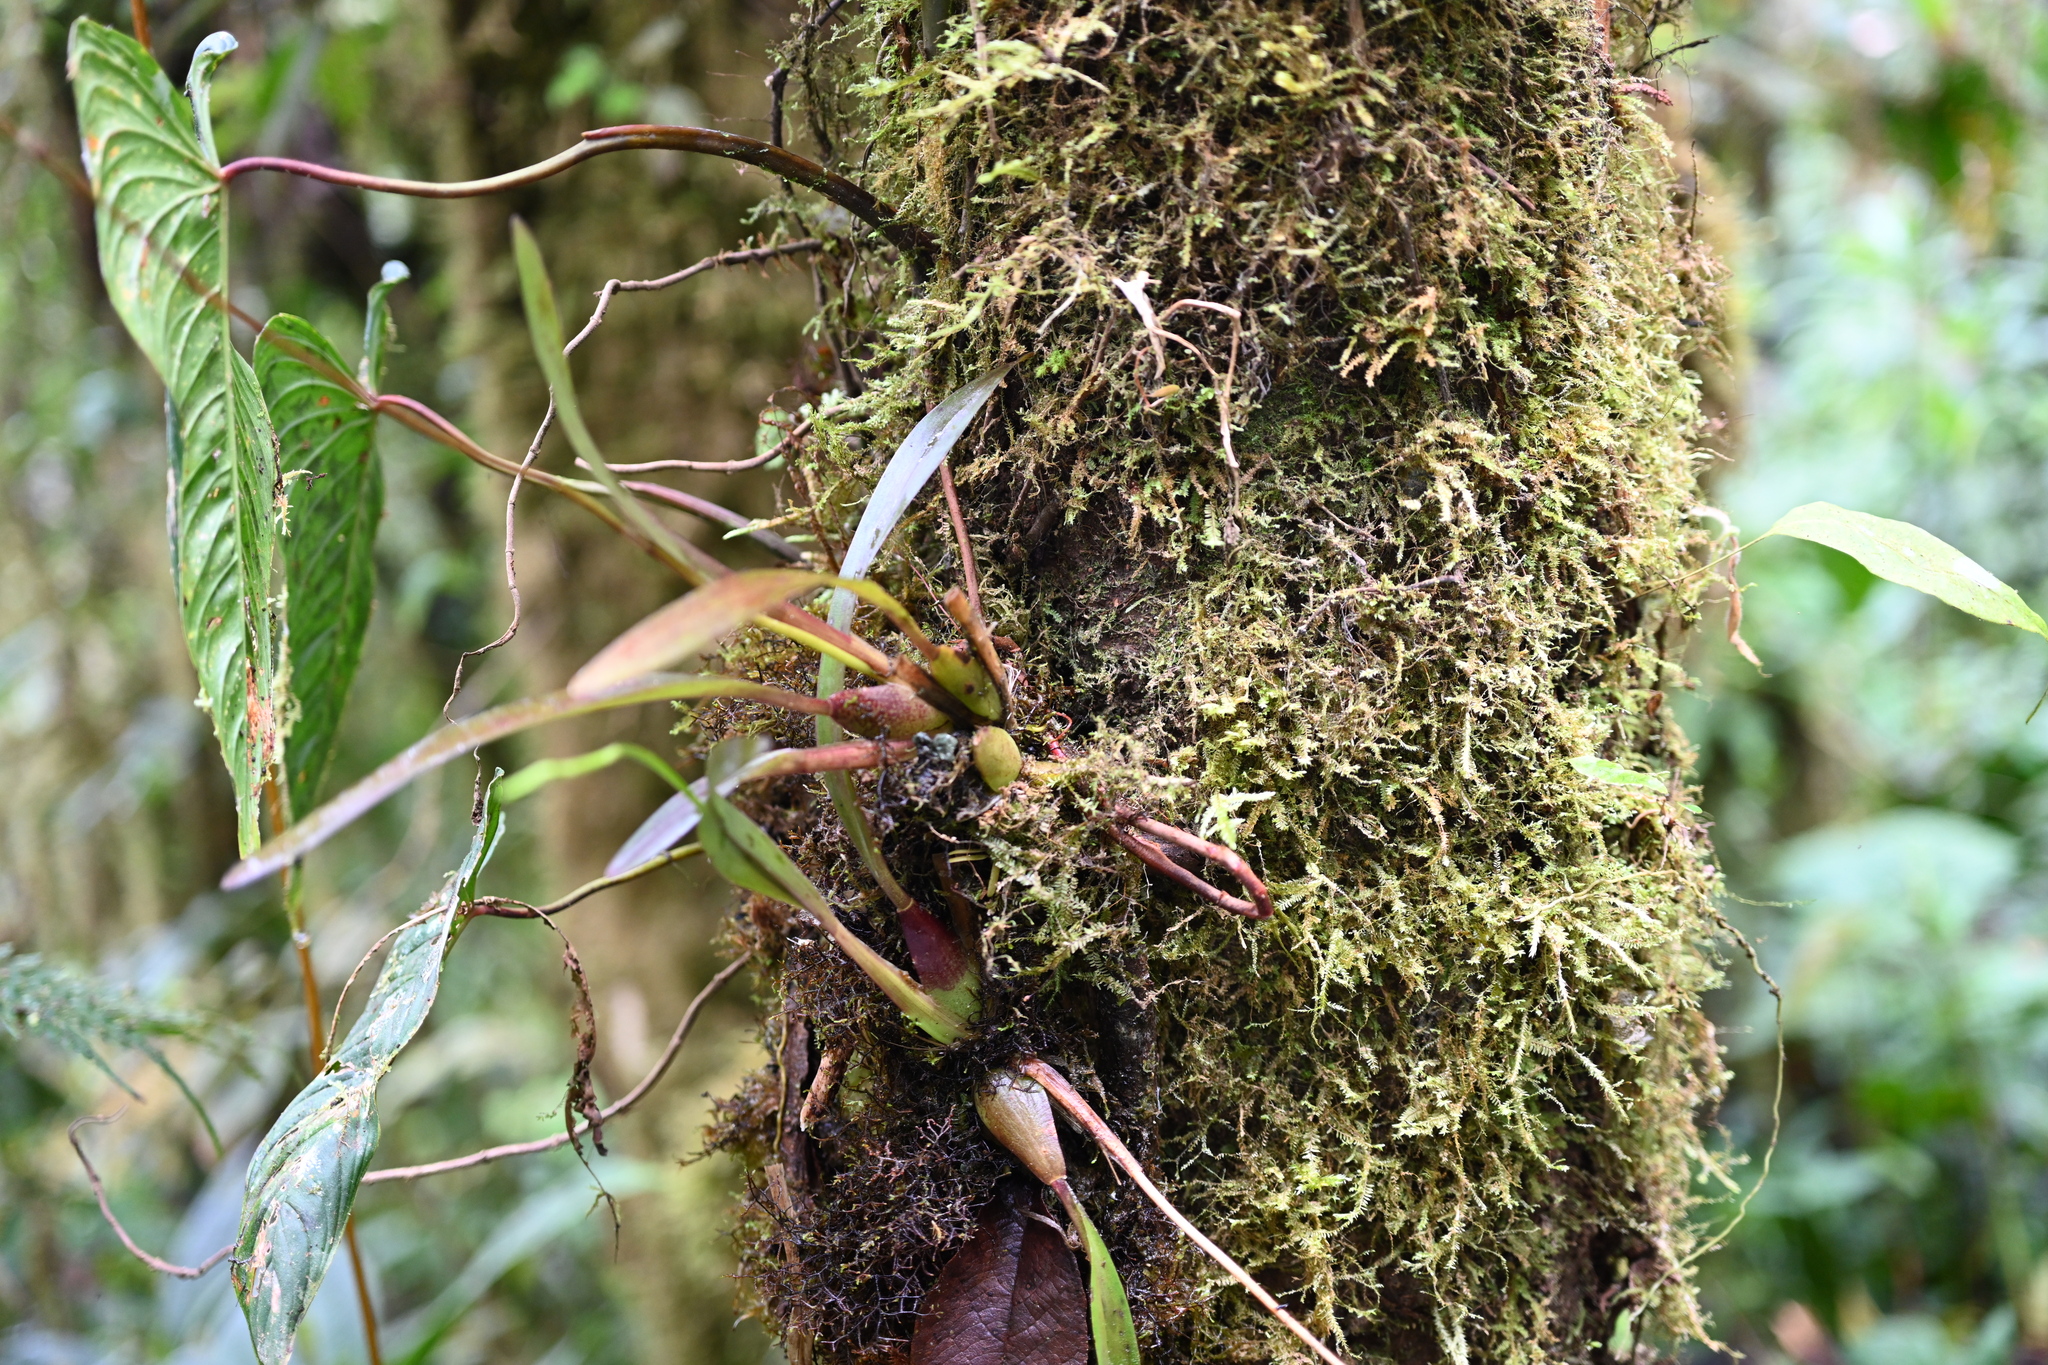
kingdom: Plantae
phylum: Tracheophyta
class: Liliopsida
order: Asparagales
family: Orchidaceae
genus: Oncidium
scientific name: Oncidium cirrhosum
